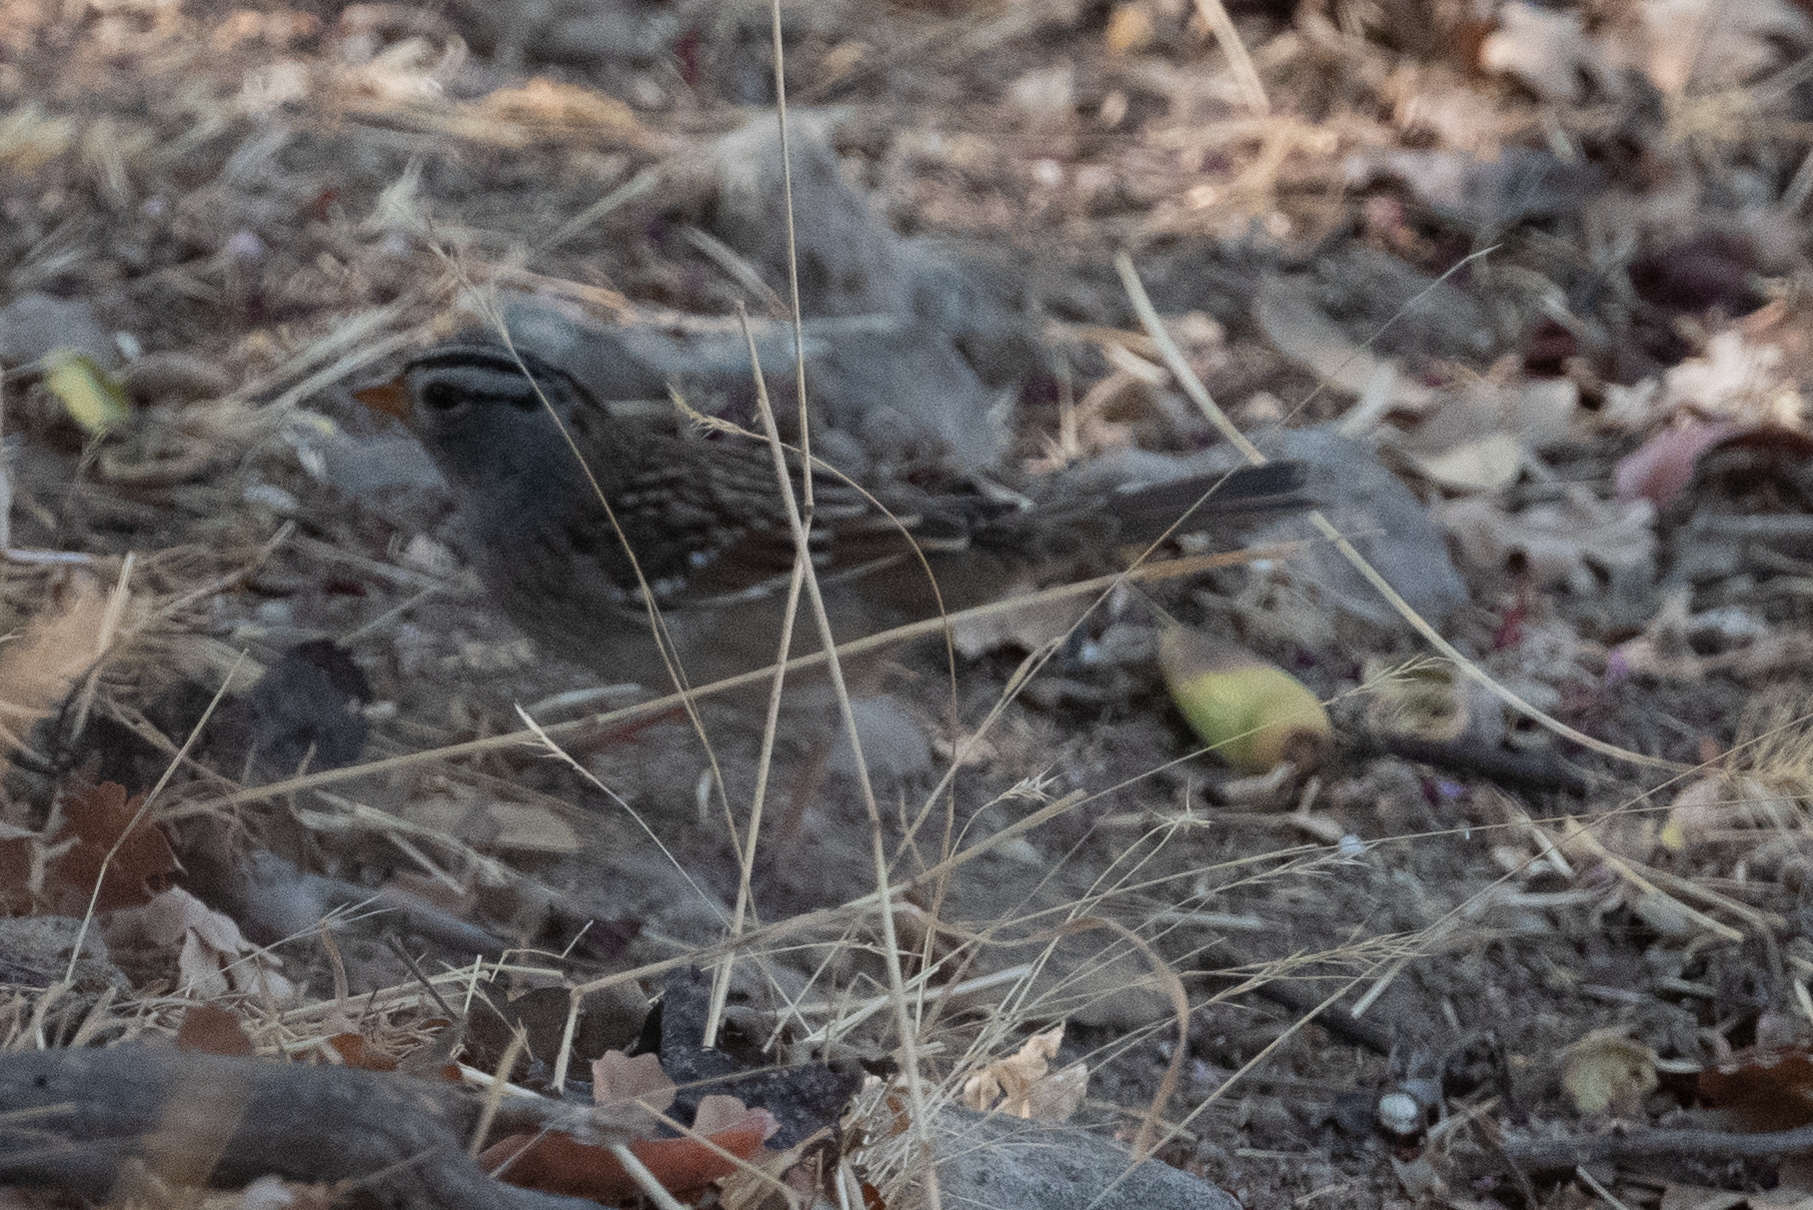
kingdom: Animalia
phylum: Chordata
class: Aves
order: Passeriformes
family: Passerellidae
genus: Zonotrichia
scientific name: Zonotrichia leucophrys
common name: White-crowned sparrow
